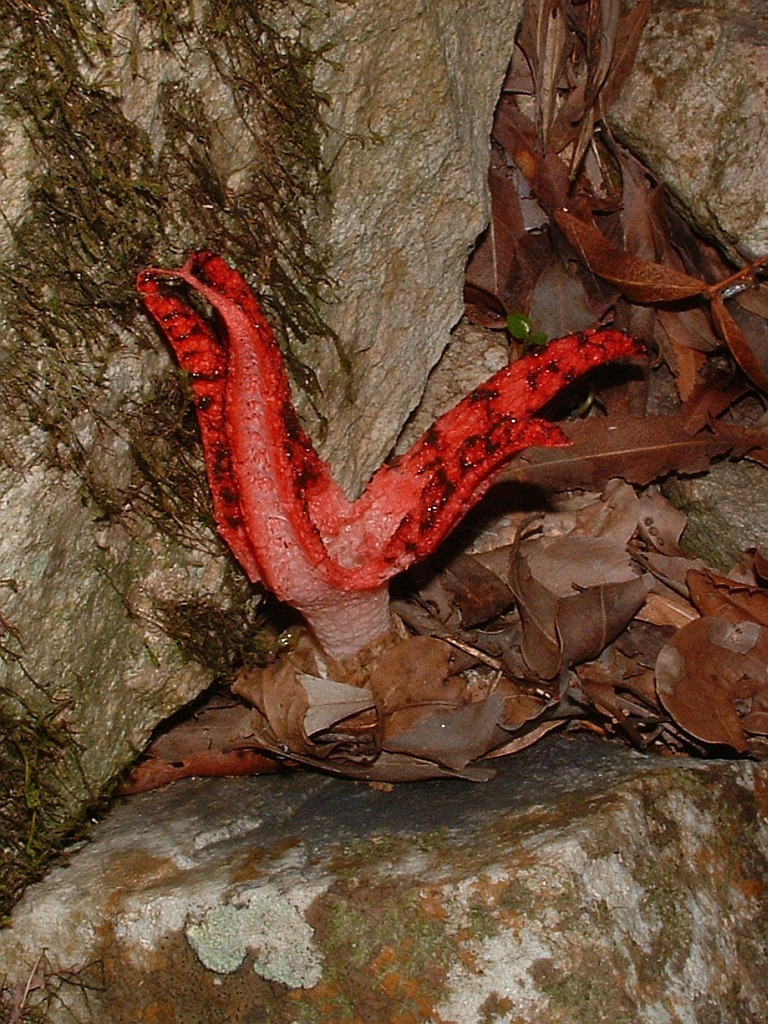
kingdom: Fungi
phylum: Basidiomycota
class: Agaricomycetes
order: Phallales
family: Phallaceae
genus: Clathrus
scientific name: Clathrus archeri
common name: Devil's fingers
